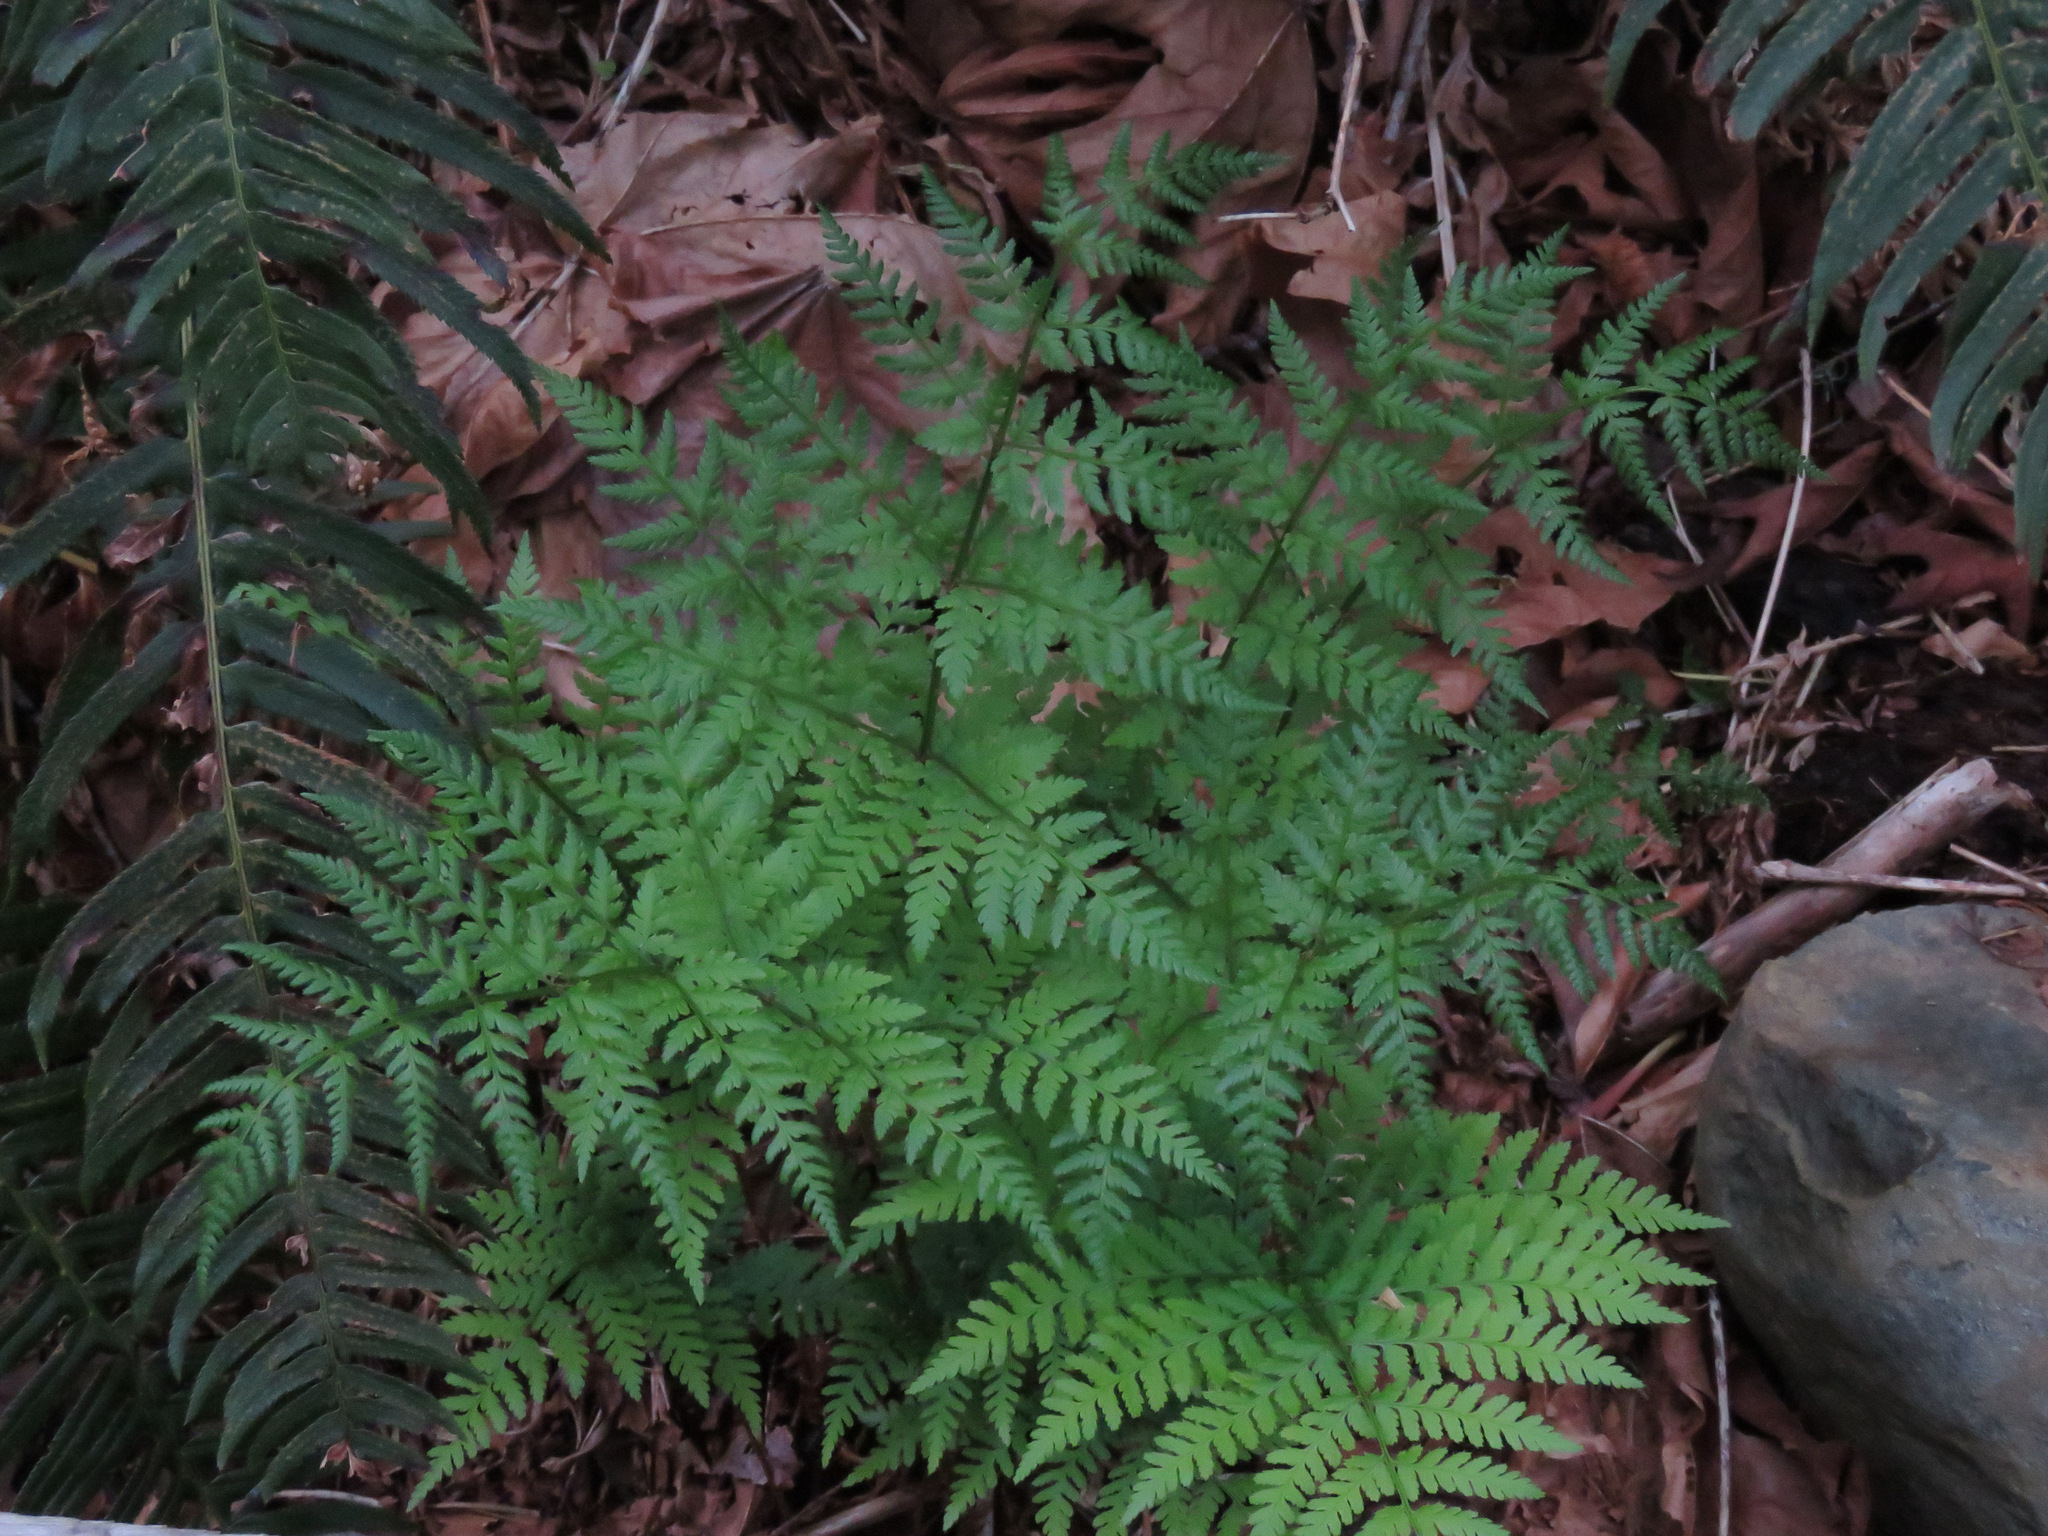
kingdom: Plantae
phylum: Tracheophyta
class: Polypodiopsida
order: Polypodiales
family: Dryopteridaceae
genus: Dryopteris
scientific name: Dryopteris expansa
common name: Northern buckler fern
